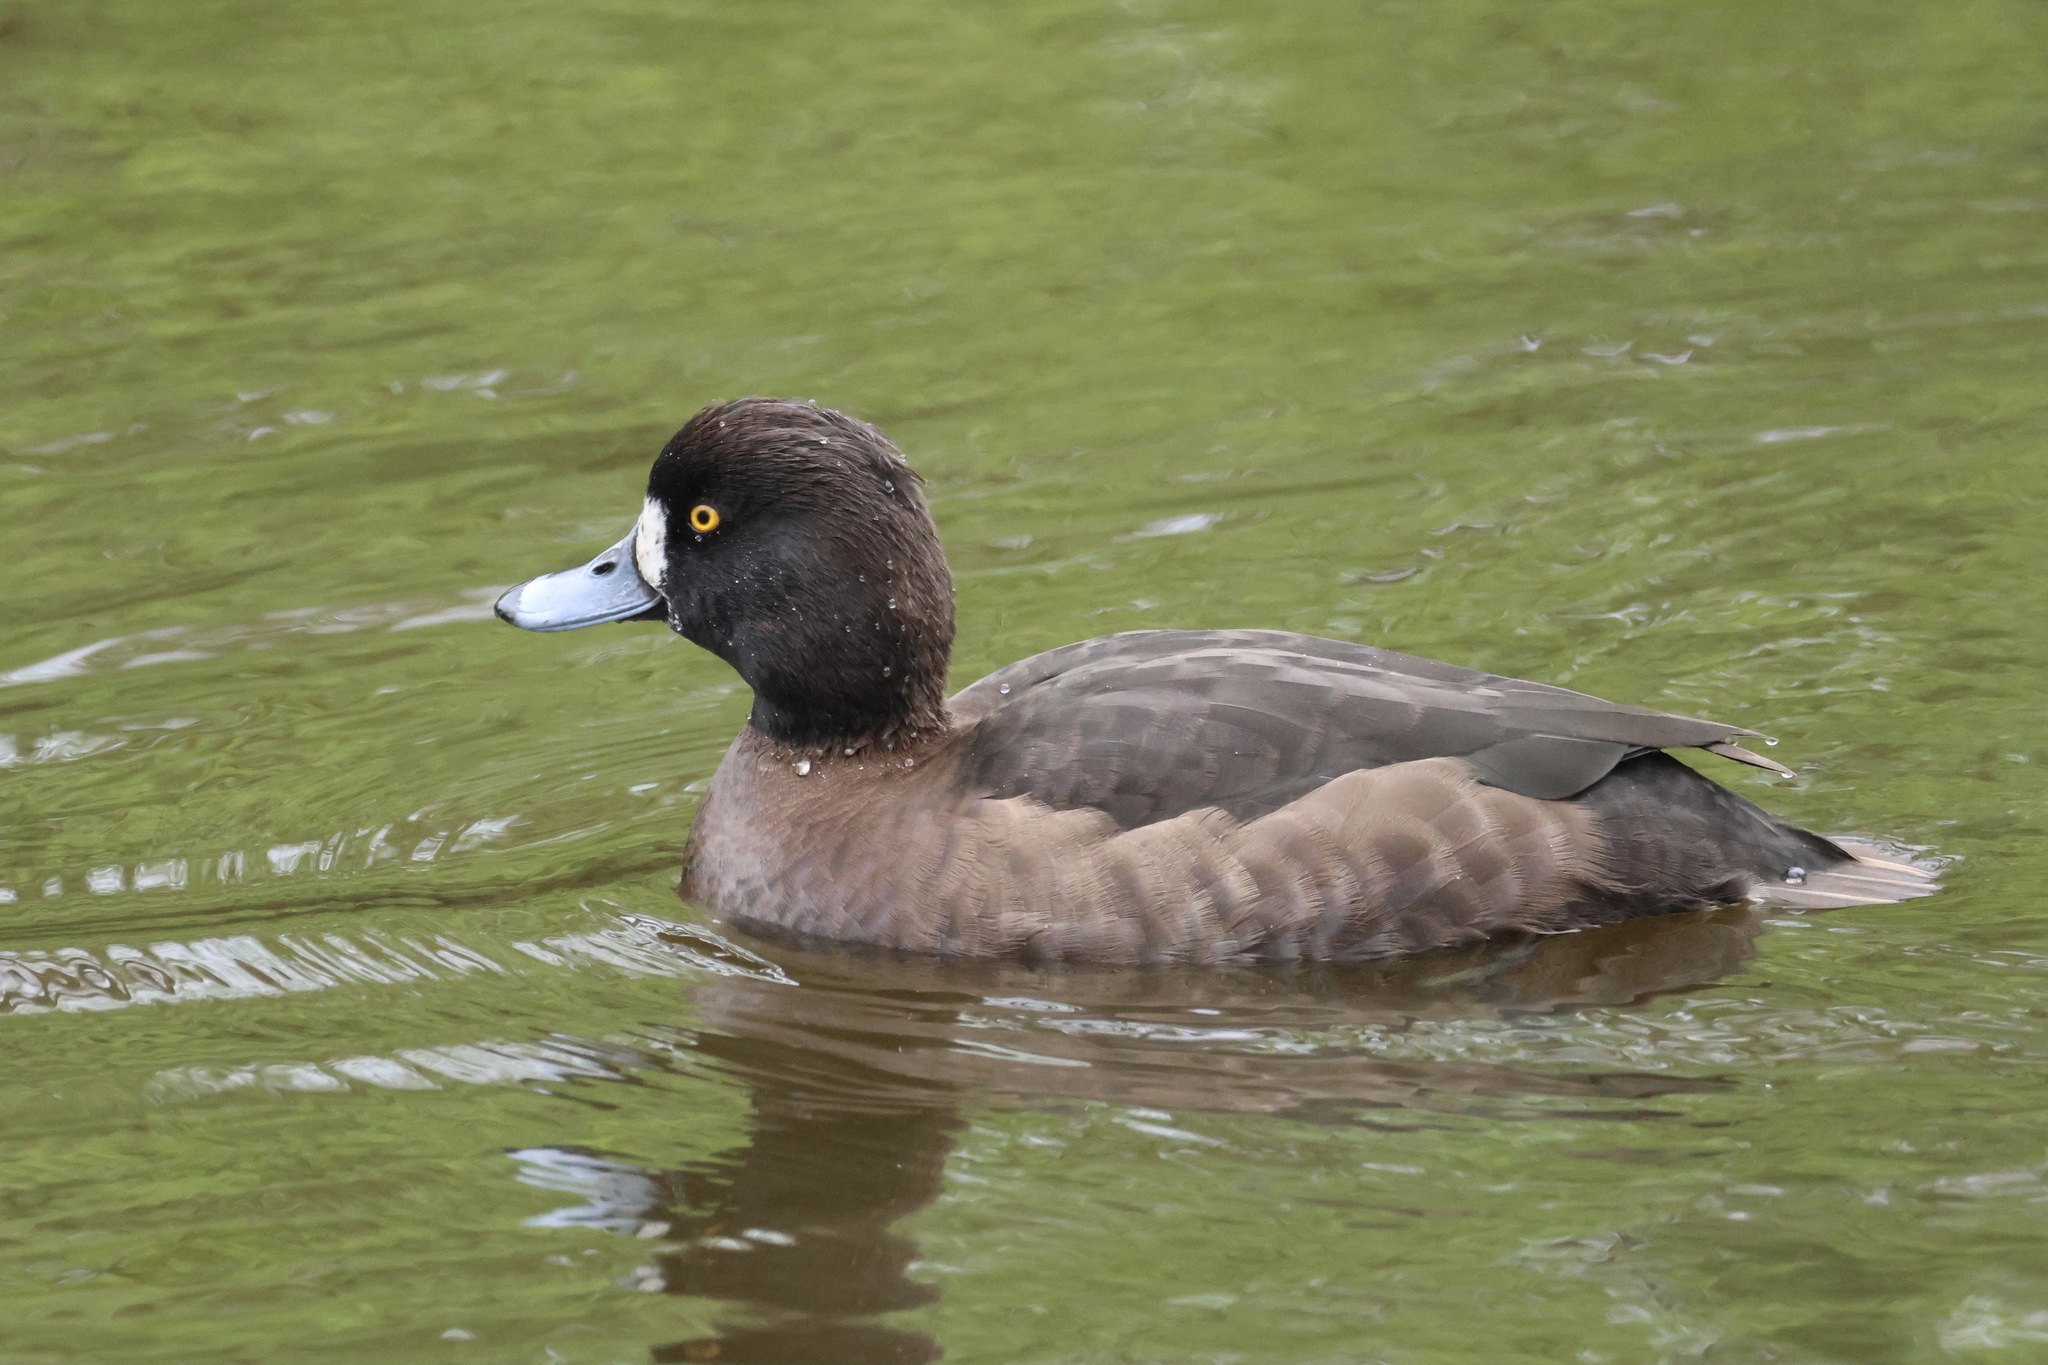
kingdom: Animalia
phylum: Chordata
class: Aves
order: Anseriformes
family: Anatidae
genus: Aythya
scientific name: Aythya fuligula
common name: Tufted duck
